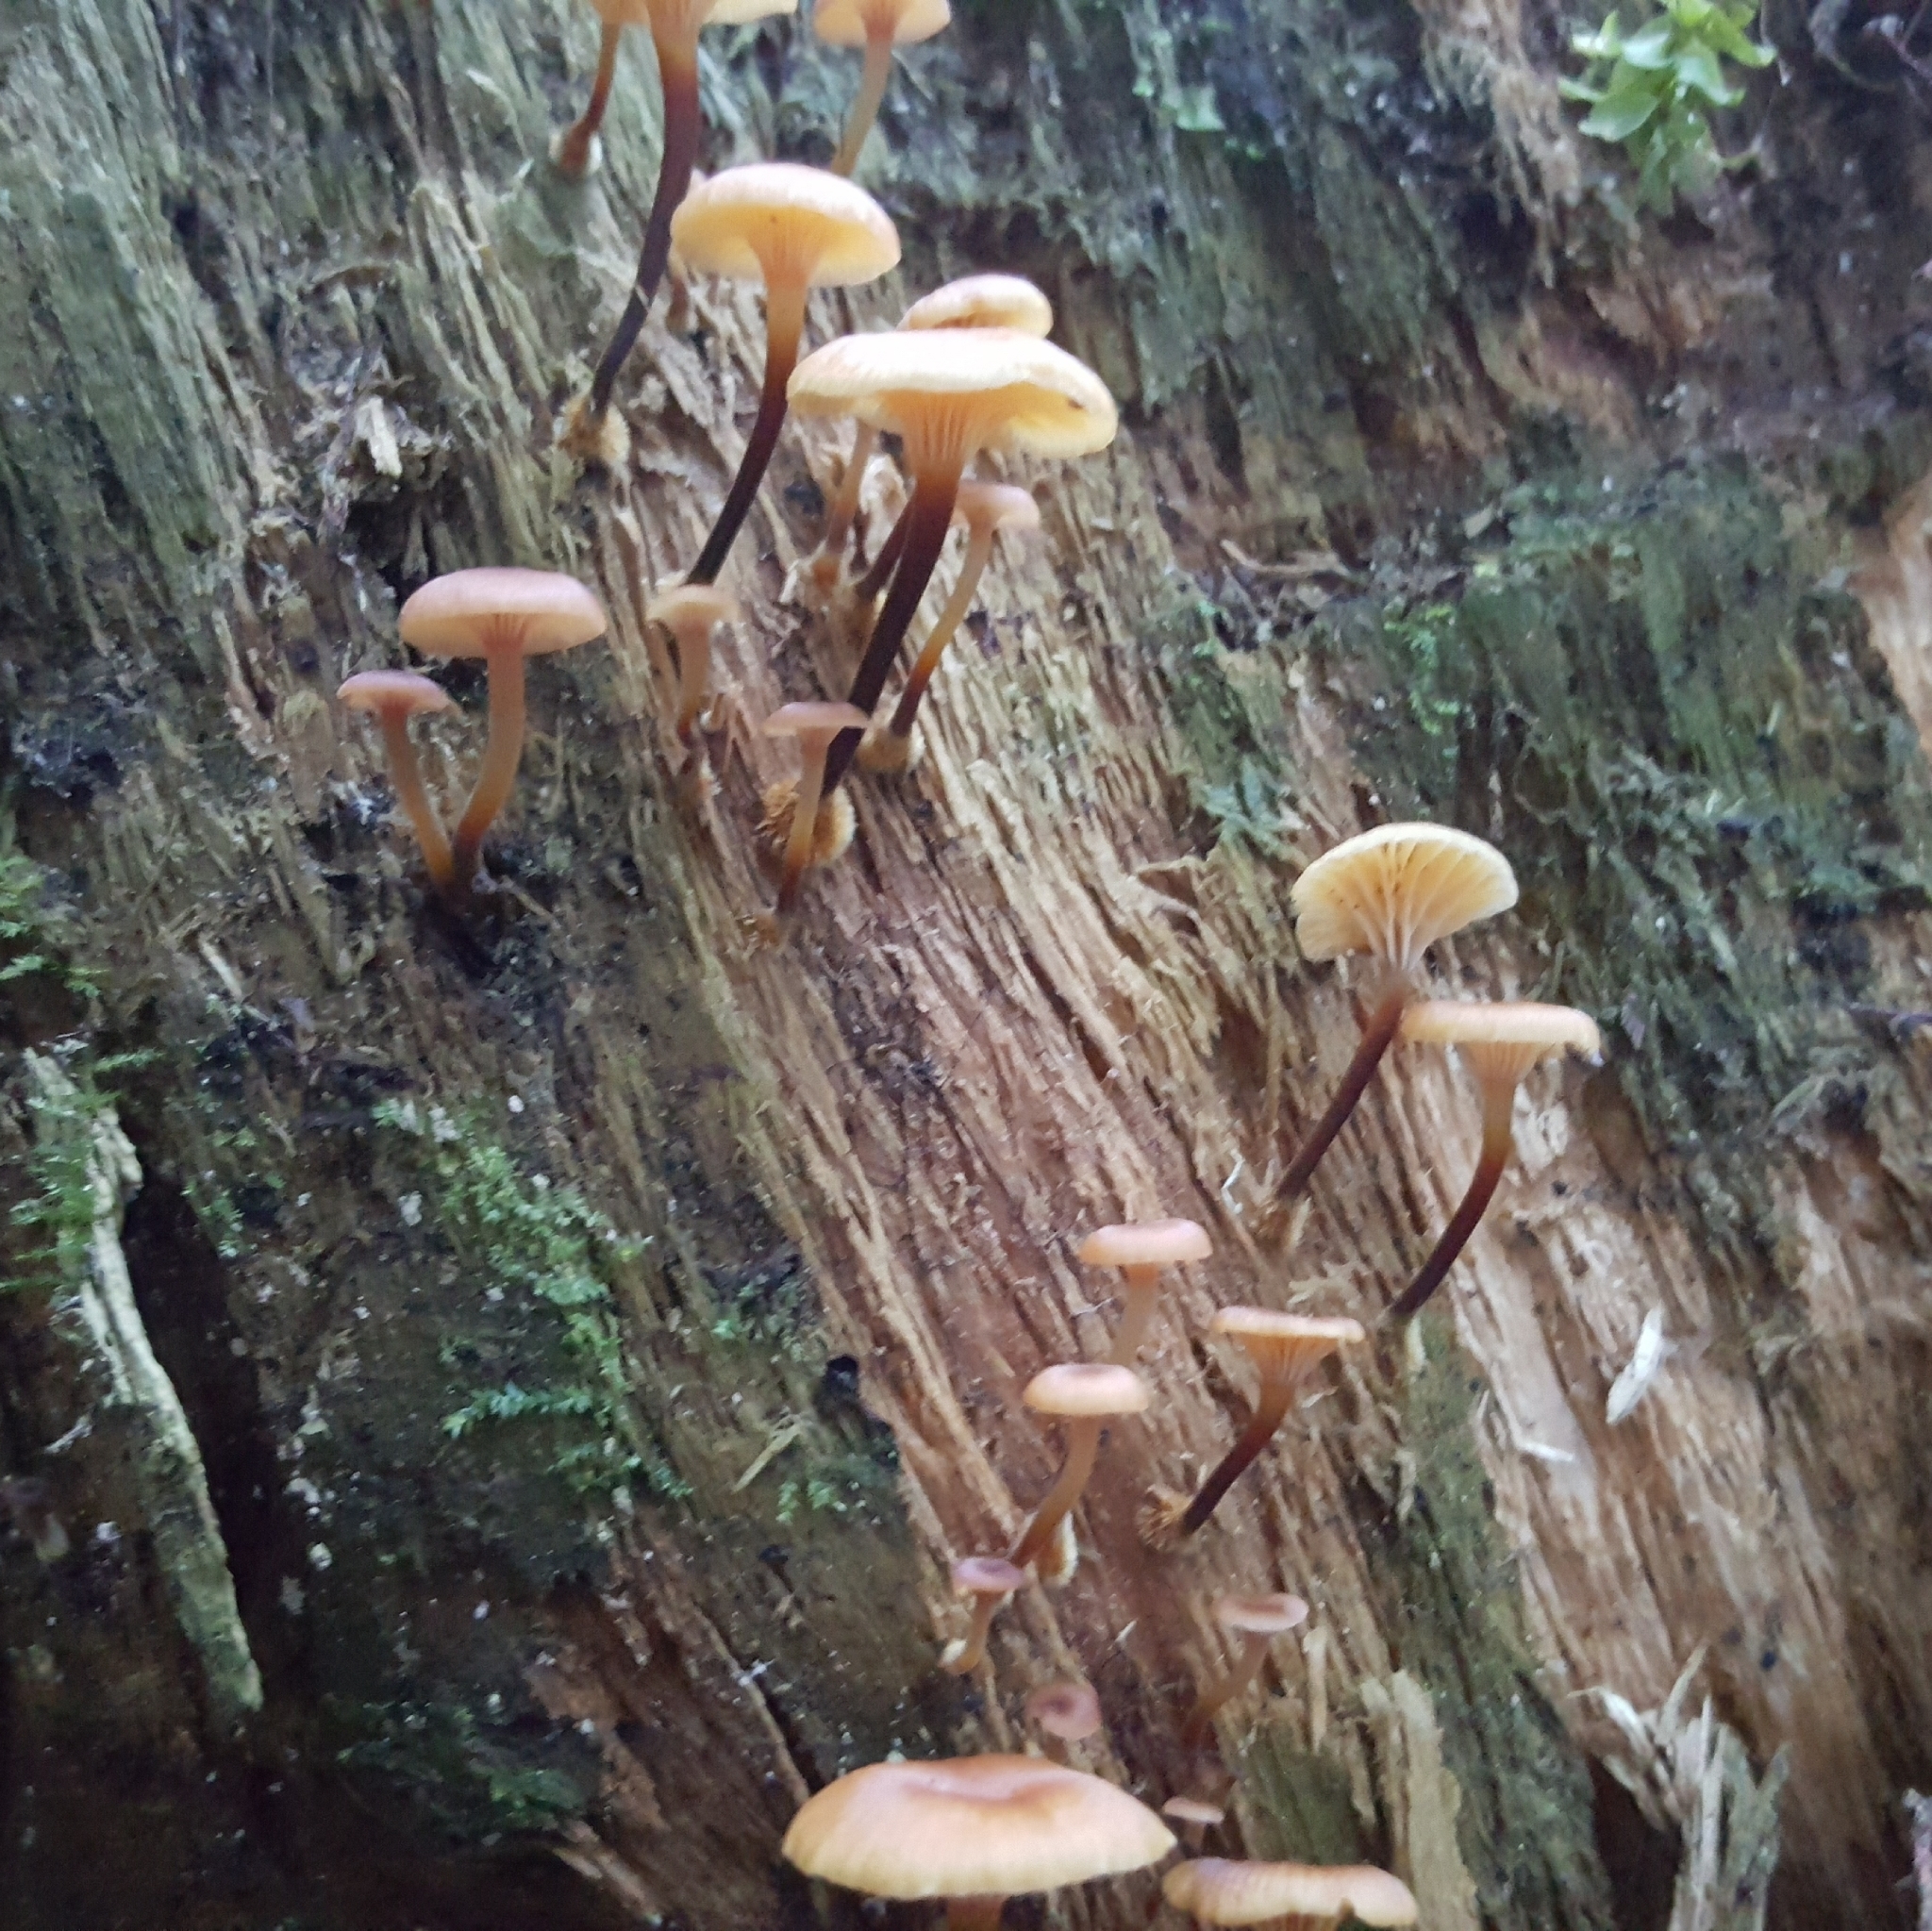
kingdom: Fungi
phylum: Basidiomycota
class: Agaricomycetes
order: Agaricales
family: Mycenaceae
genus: Xeromphalina
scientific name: Xeromphalina campanella
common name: Pinewood gingertail
